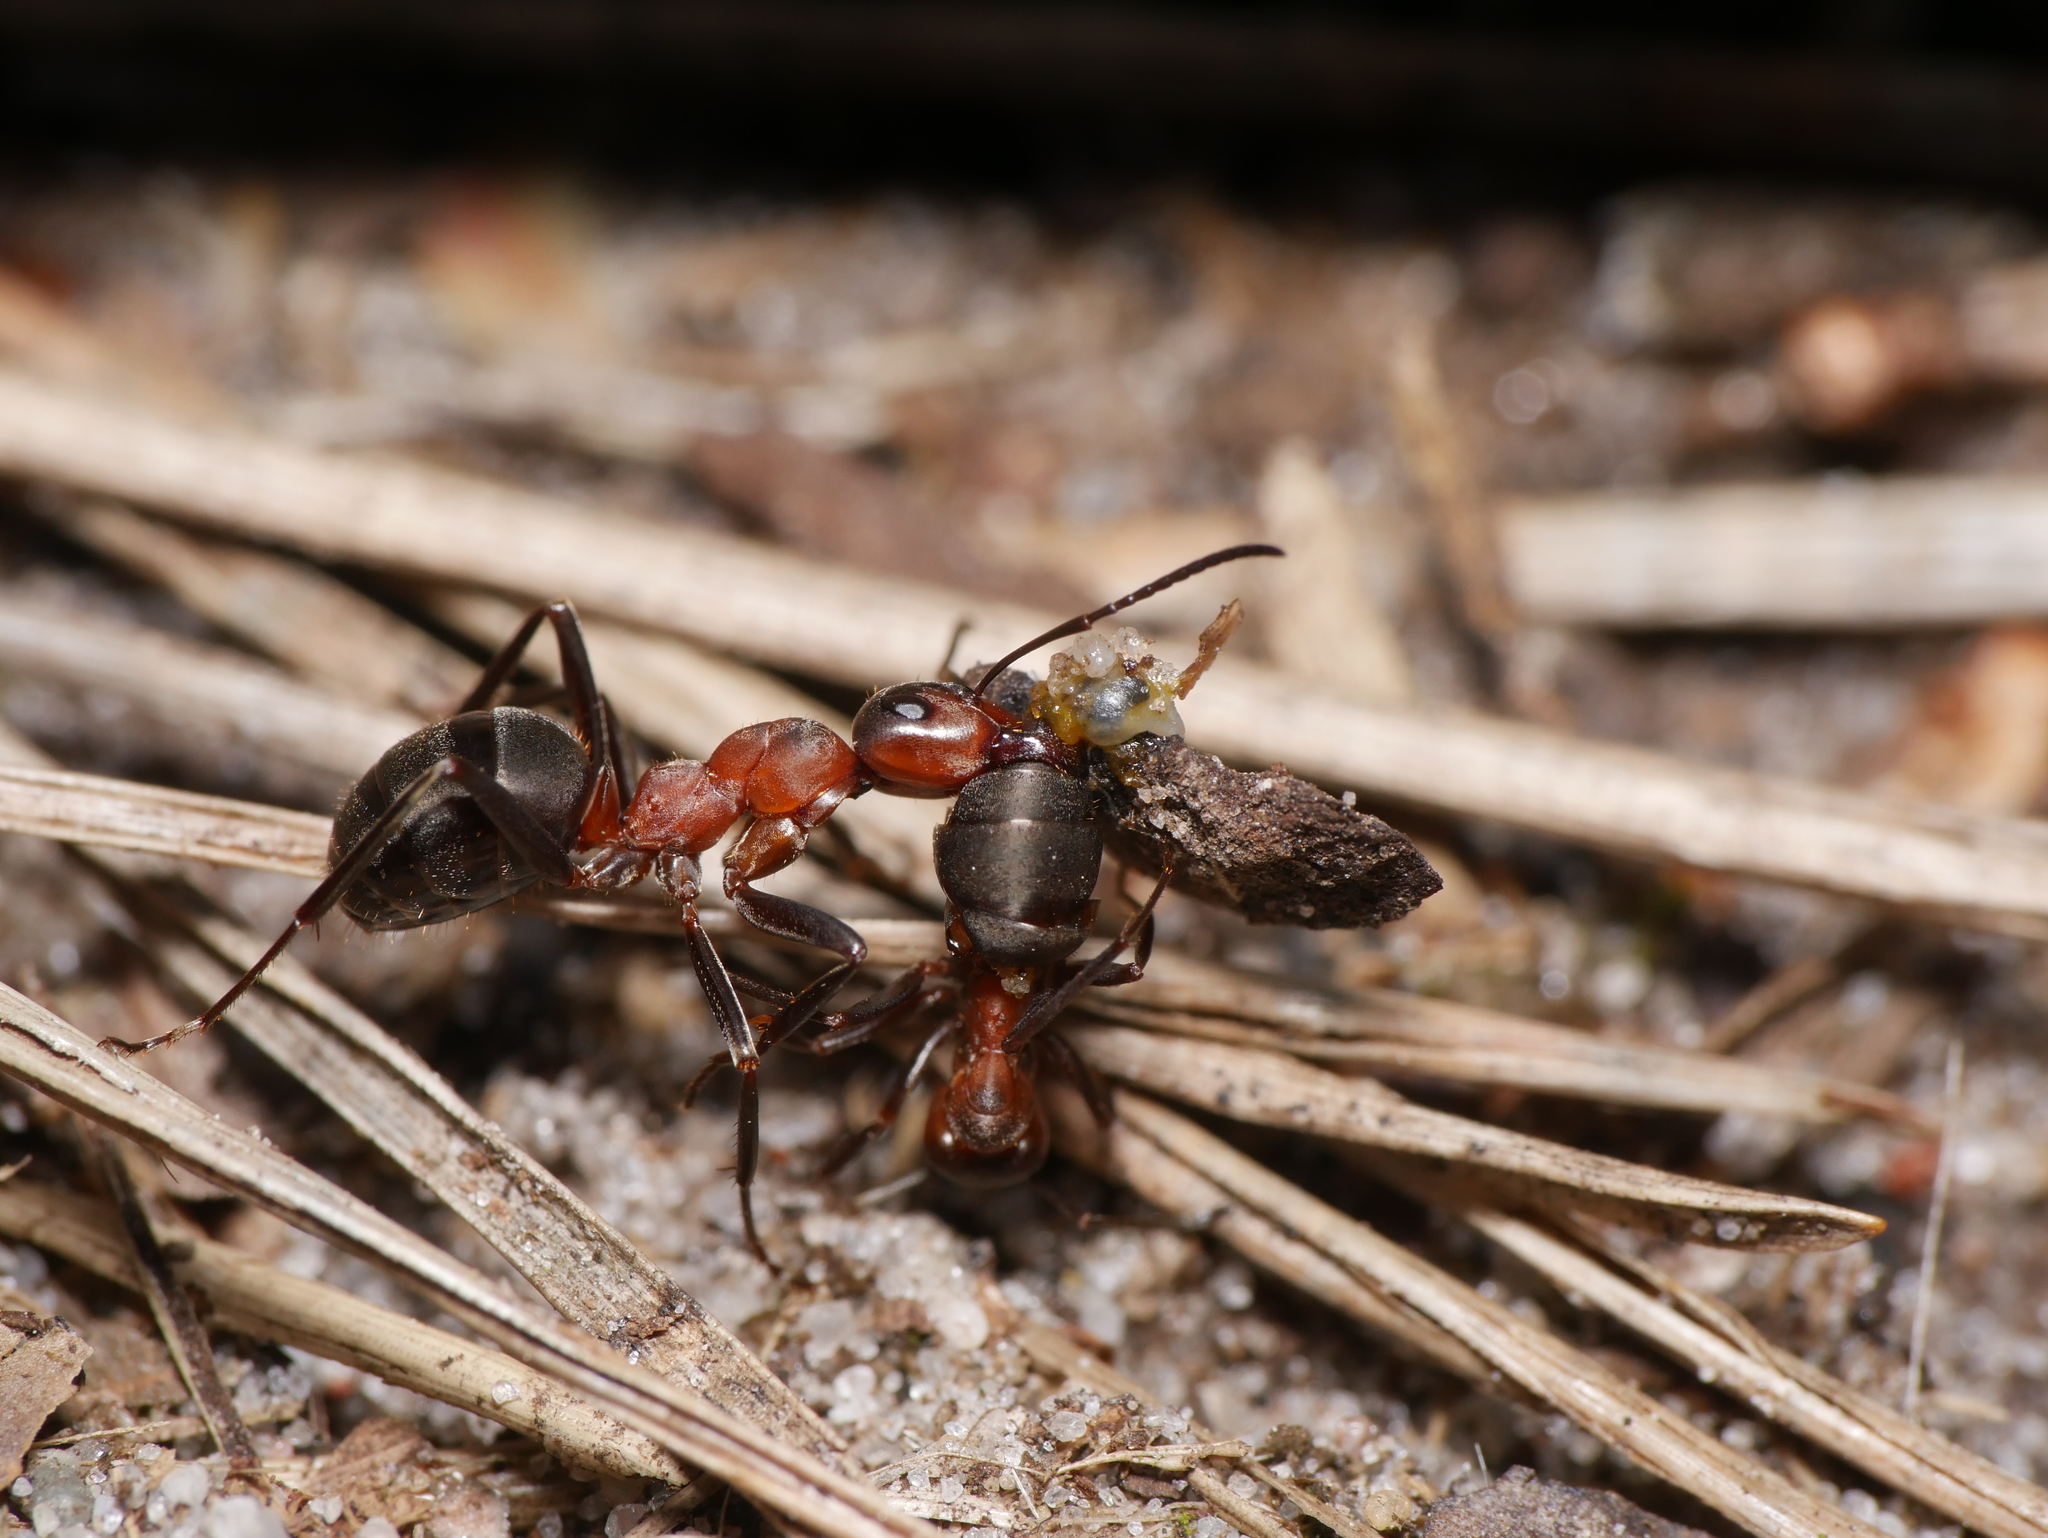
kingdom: Animalia
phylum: Arthropoda
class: Insecta
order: Hymenoptera
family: Formicidae
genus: Formica
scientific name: Formica rufa
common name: Red wood ant
